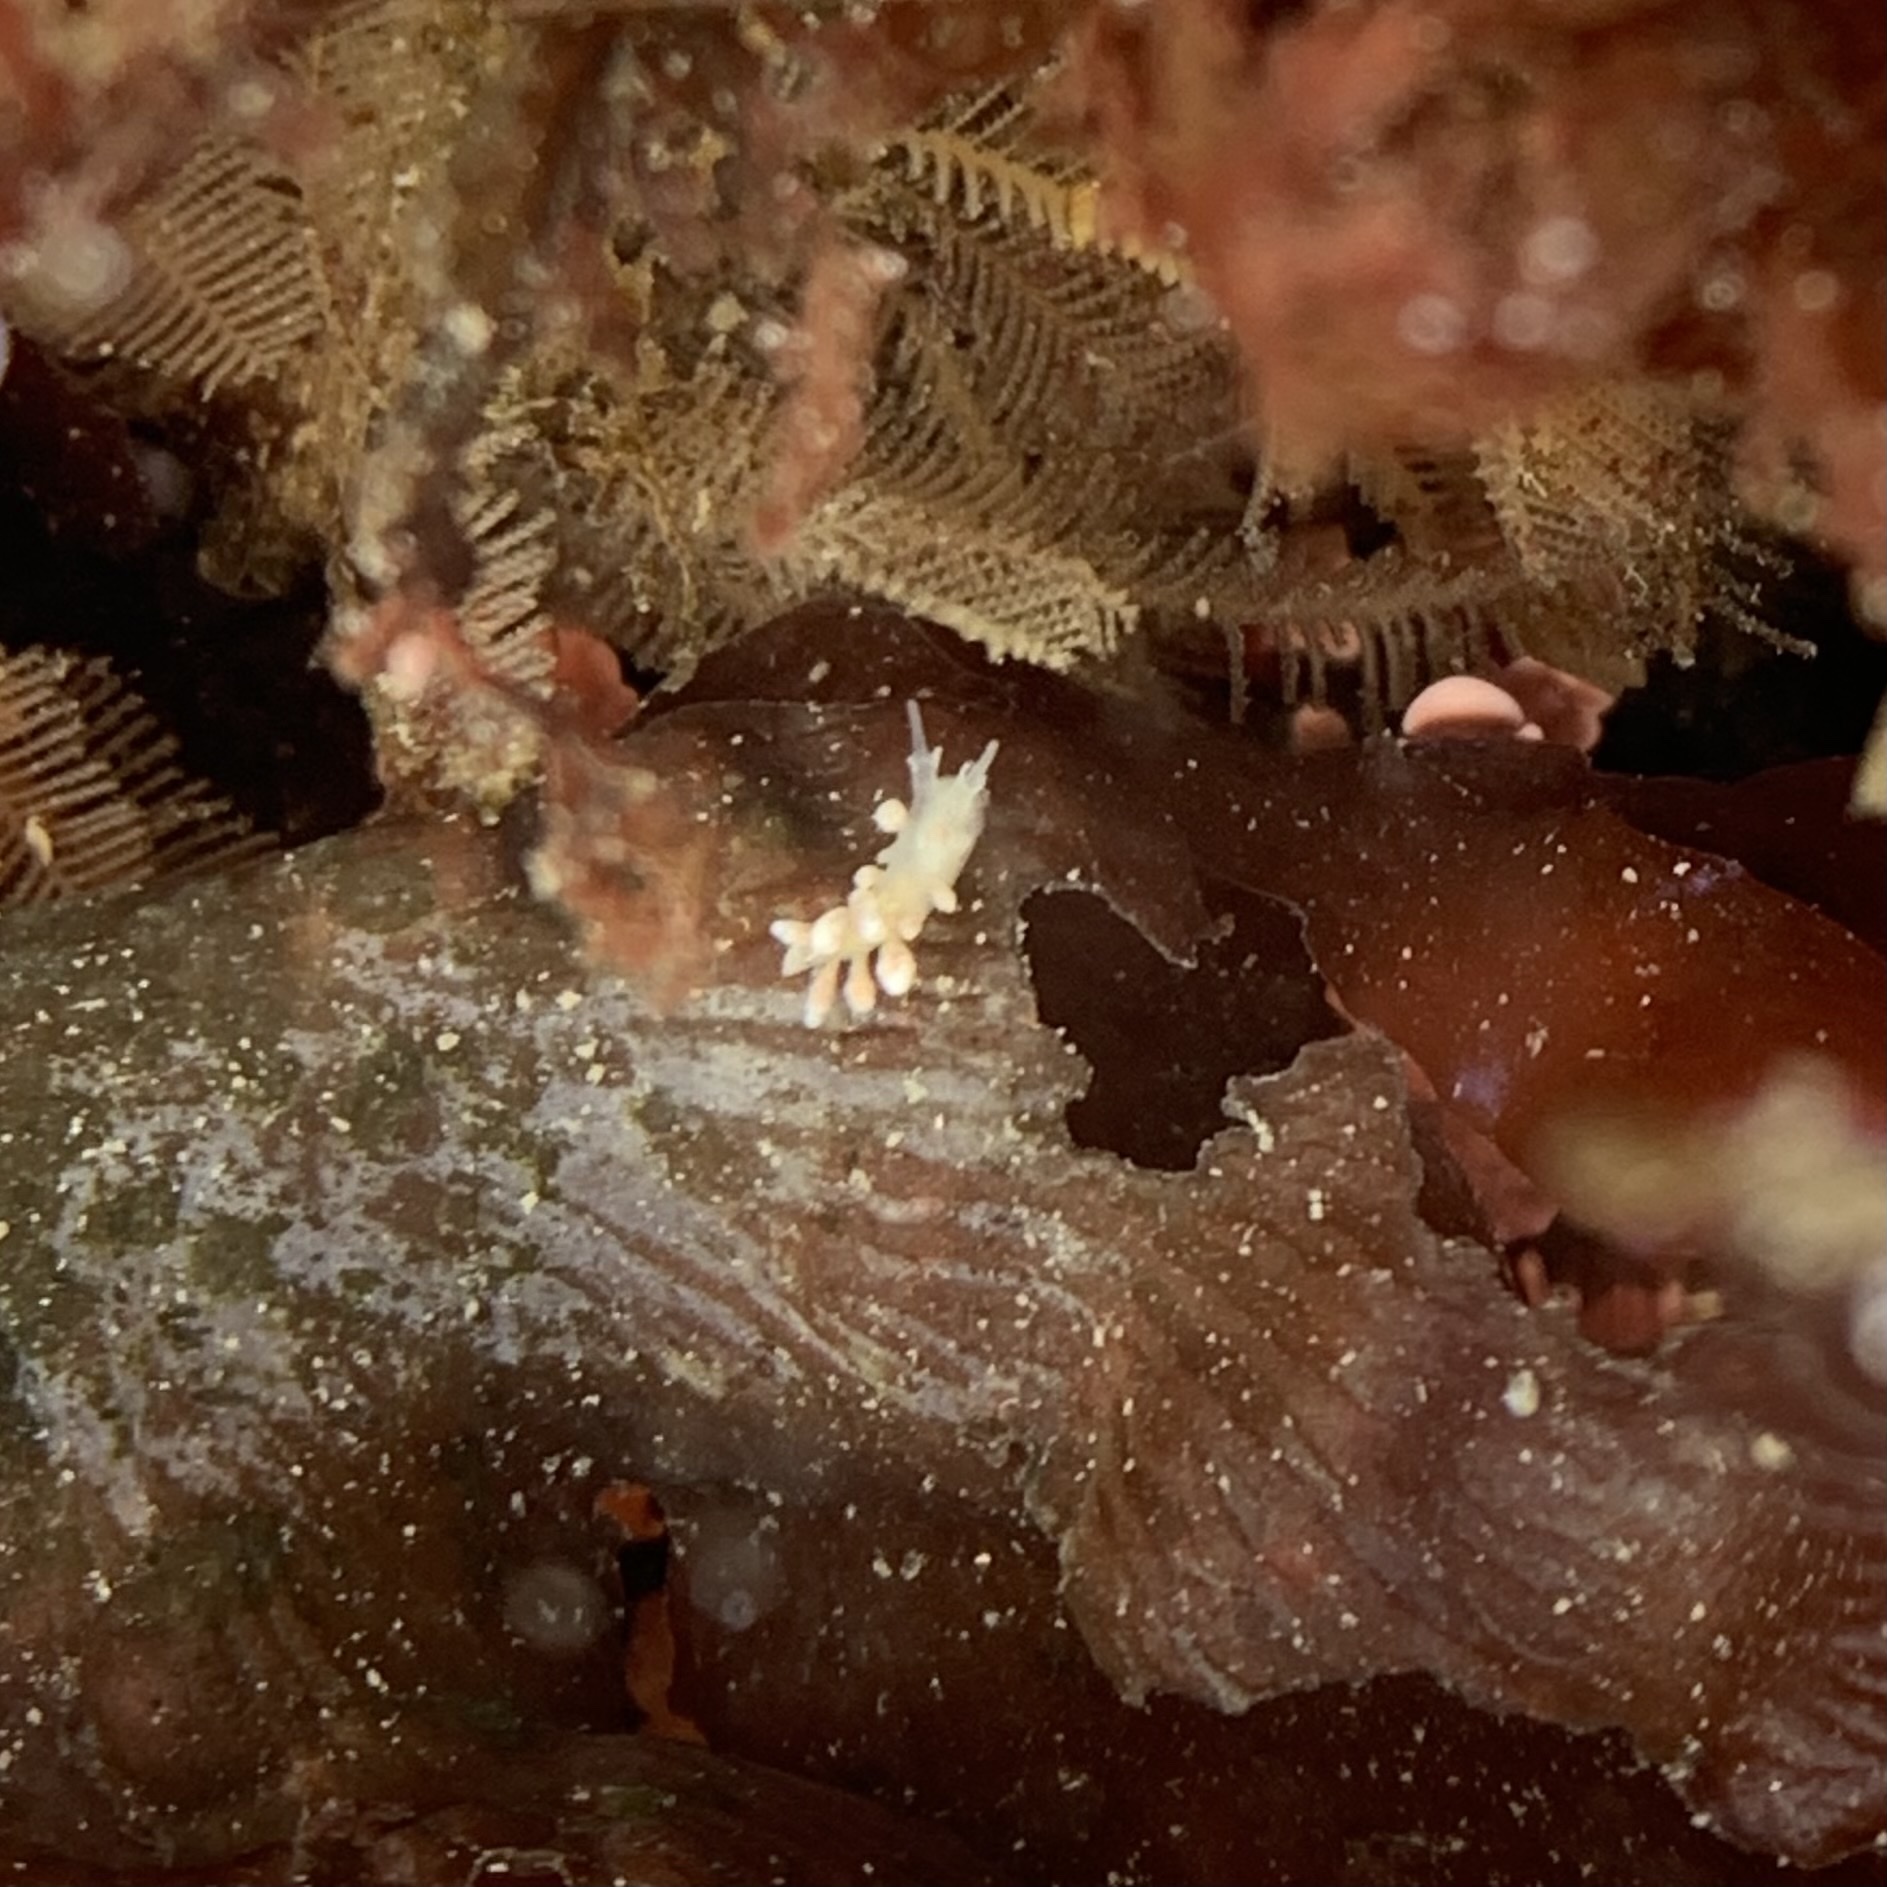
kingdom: Animalia
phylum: Mollusca
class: Gastropoda
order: Nudibranchia
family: Dotidae
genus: Doto
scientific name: Doto amyra
